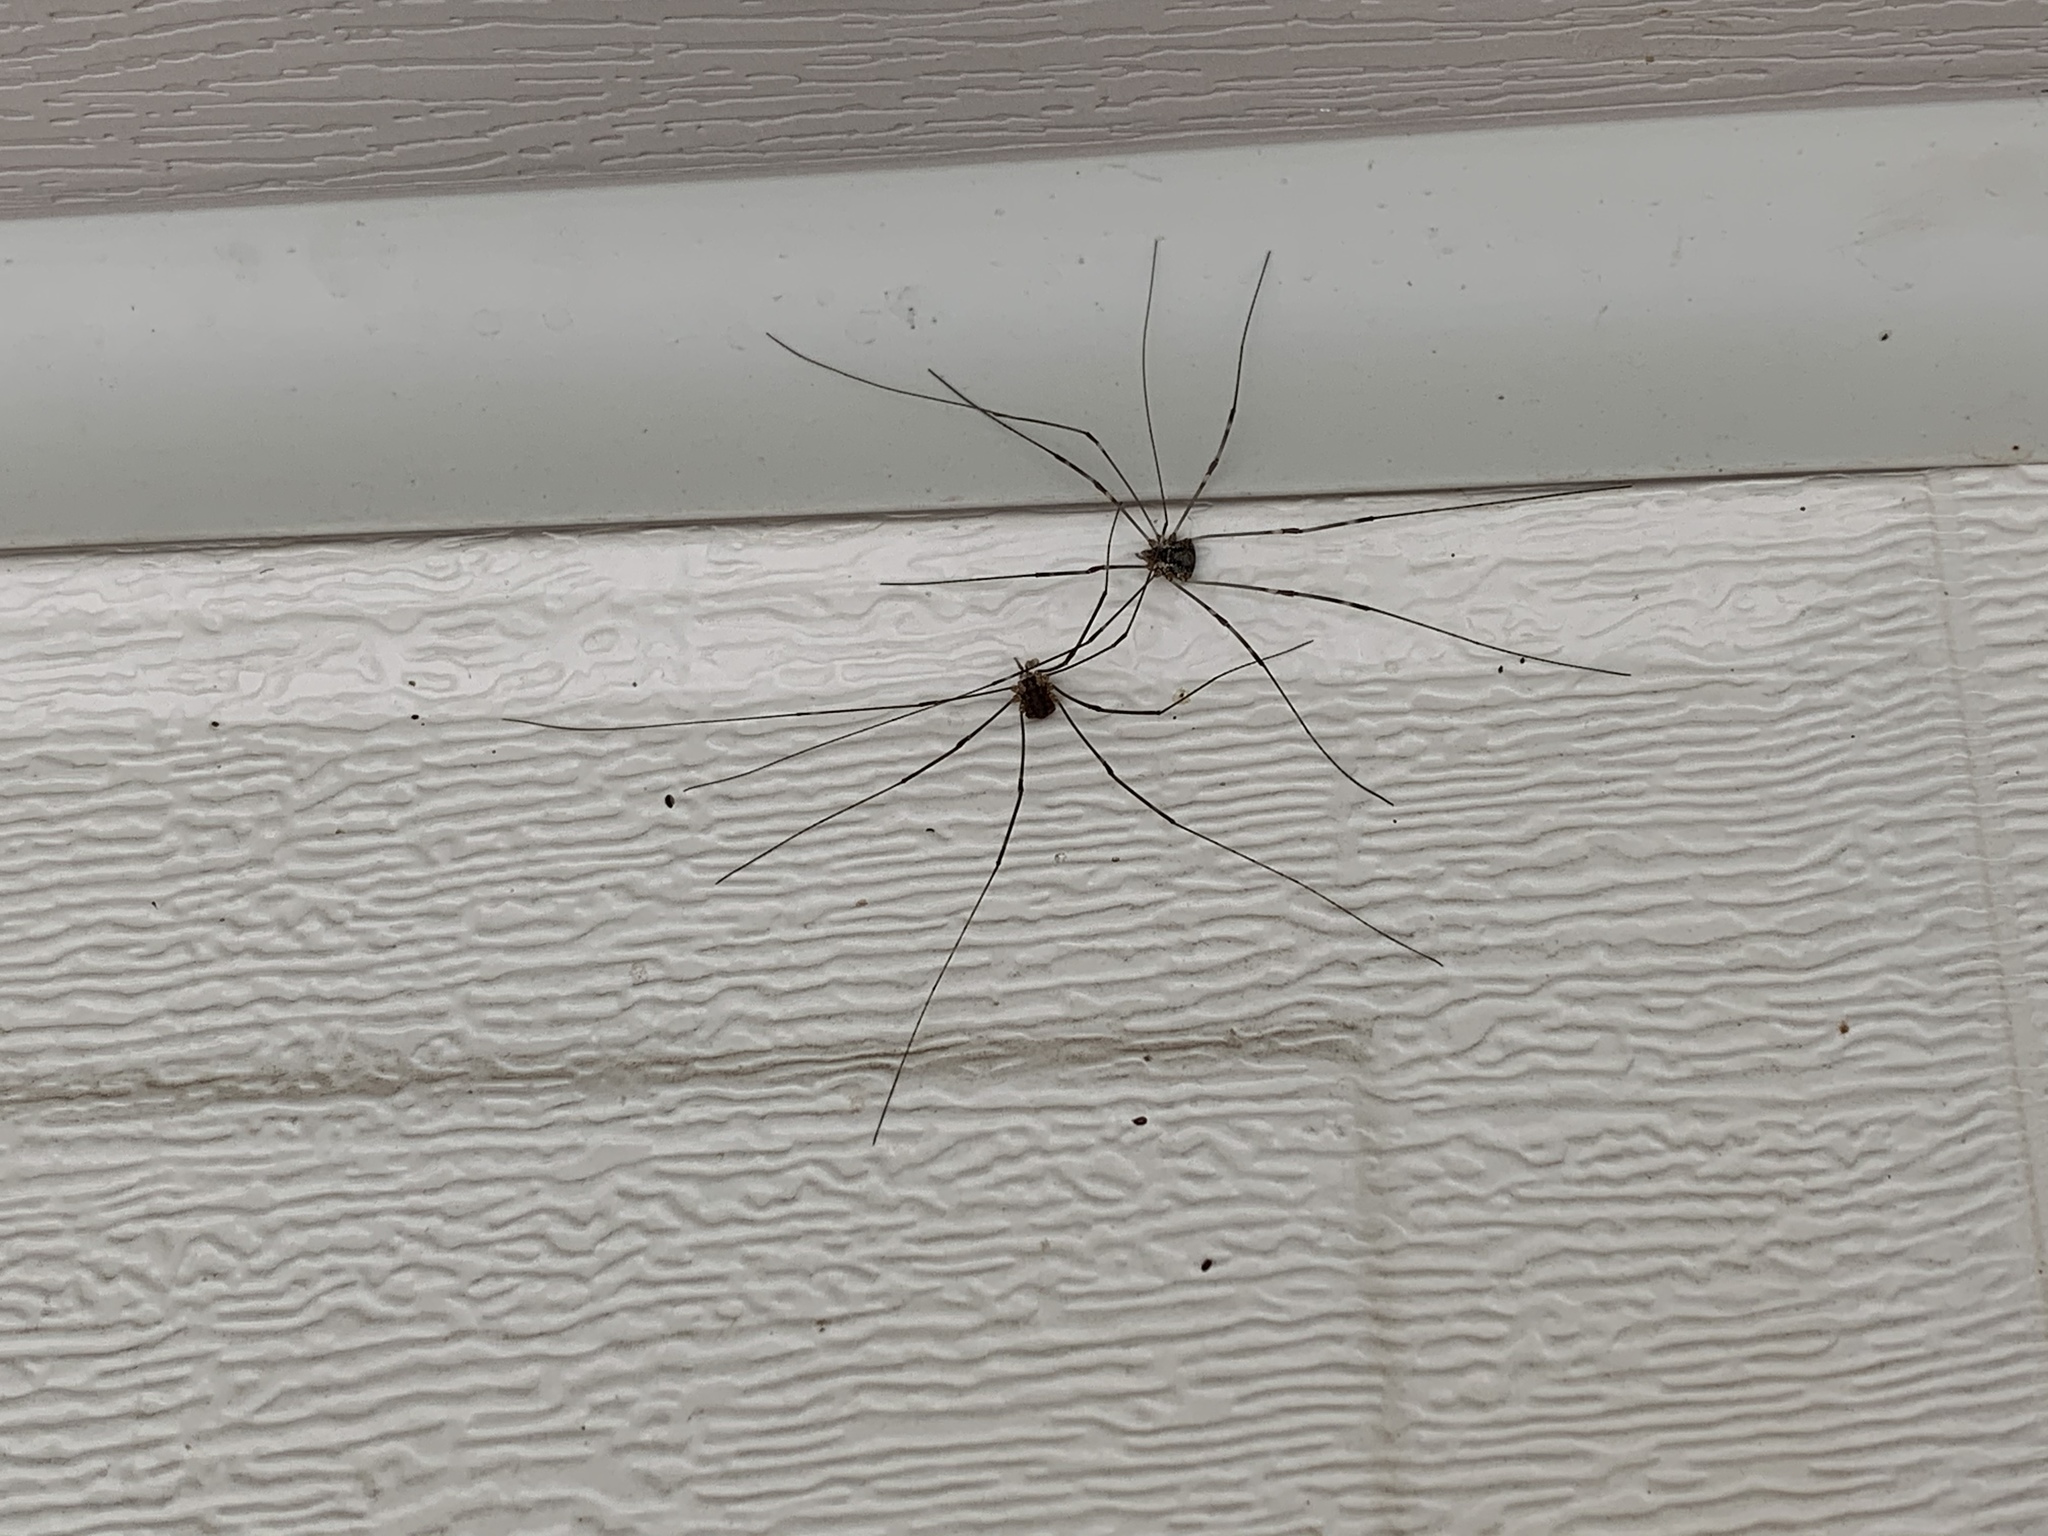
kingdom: Animalia
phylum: Arthropoda
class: Arachnida
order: Opiliones
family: Sclerosomatidae
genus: Leiobunum
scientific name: Leiobunum townsendi
